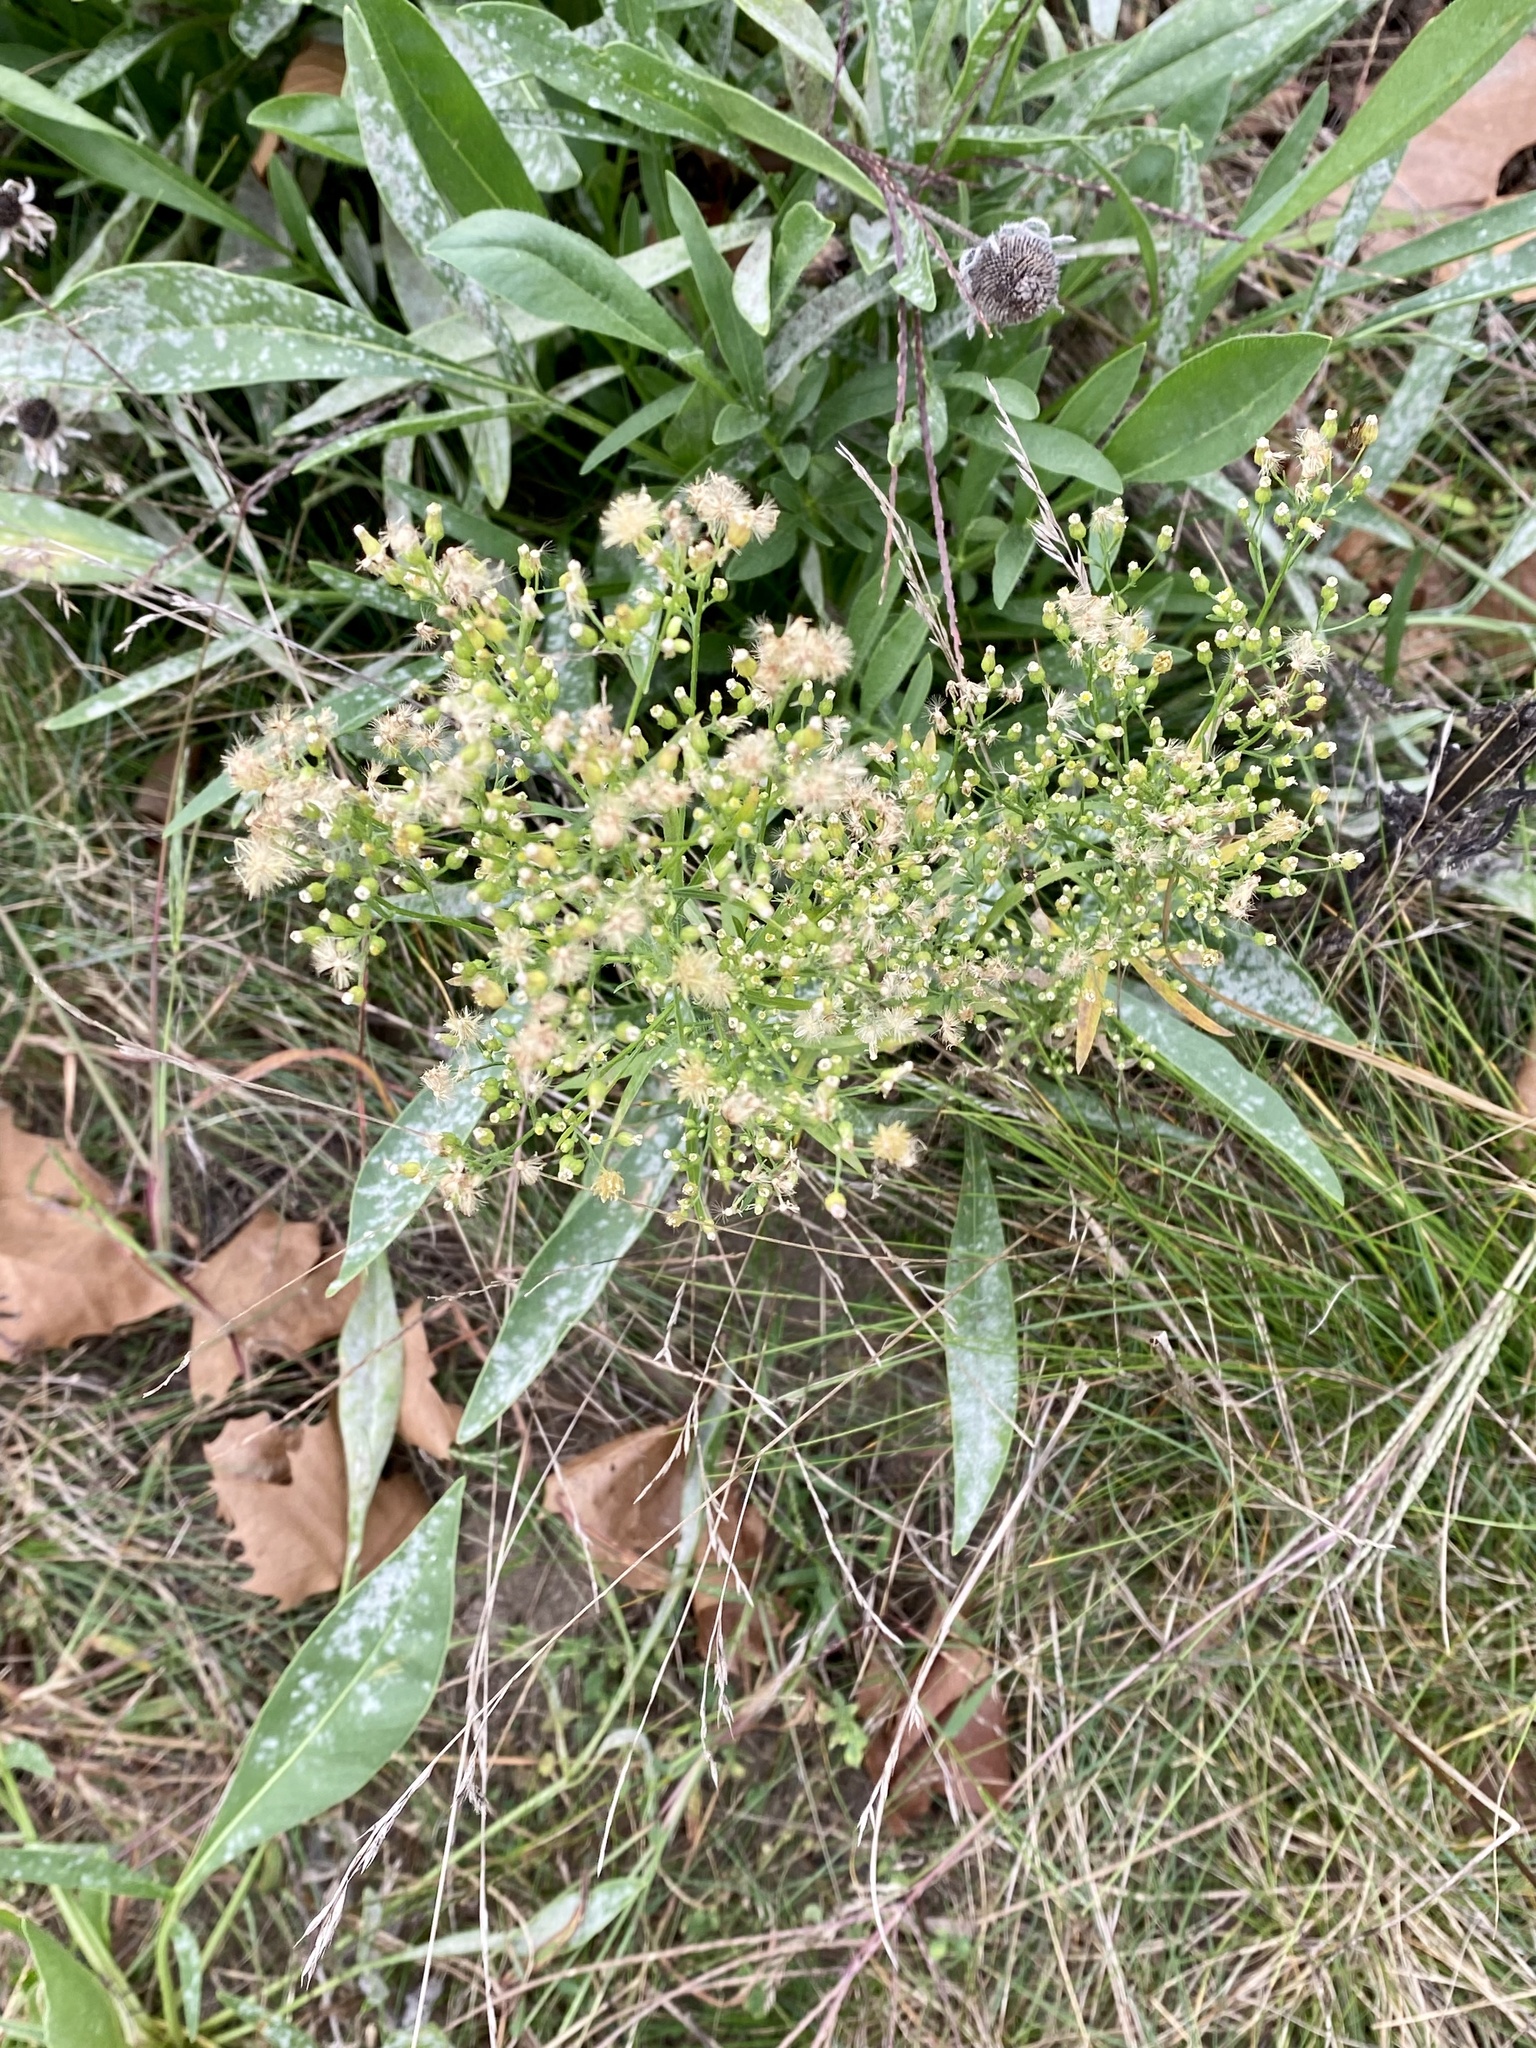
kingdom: Plantae
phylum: Tracheophyta
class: Magnoliopsida
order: Asterales
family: Asteraceae
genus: Erigeron
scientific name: Erigeron canadensis
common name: Canadian fleabane
